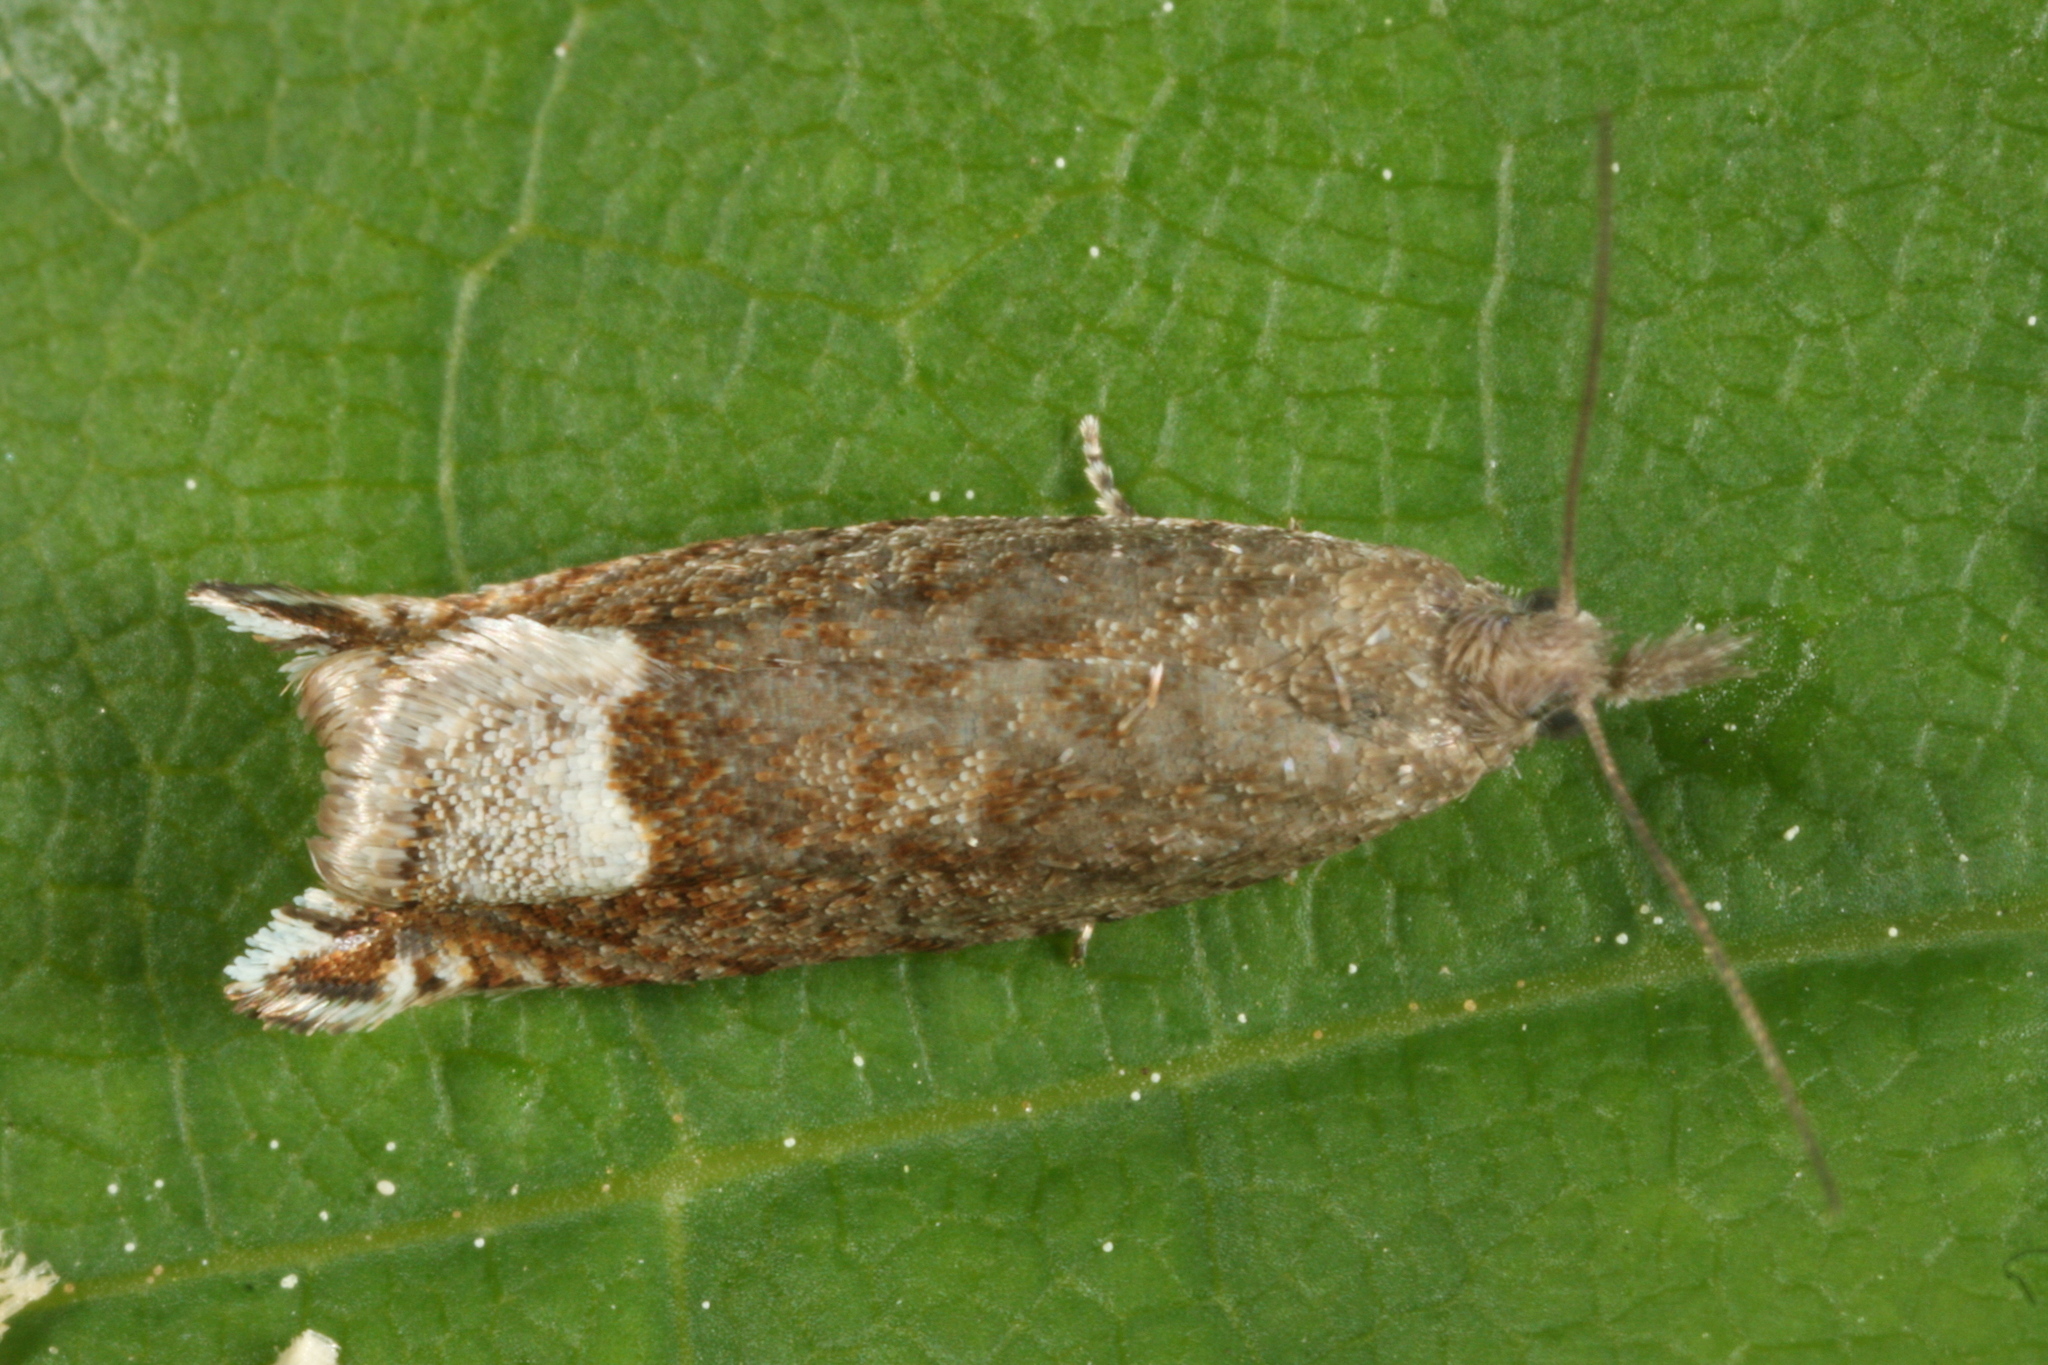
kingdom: Animalia
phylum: Arthropoda
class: Insecta
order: Lepidoptera
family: Tortricidae
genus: Ancylis
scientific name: Ancylis tineana
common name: Rannoch roller
